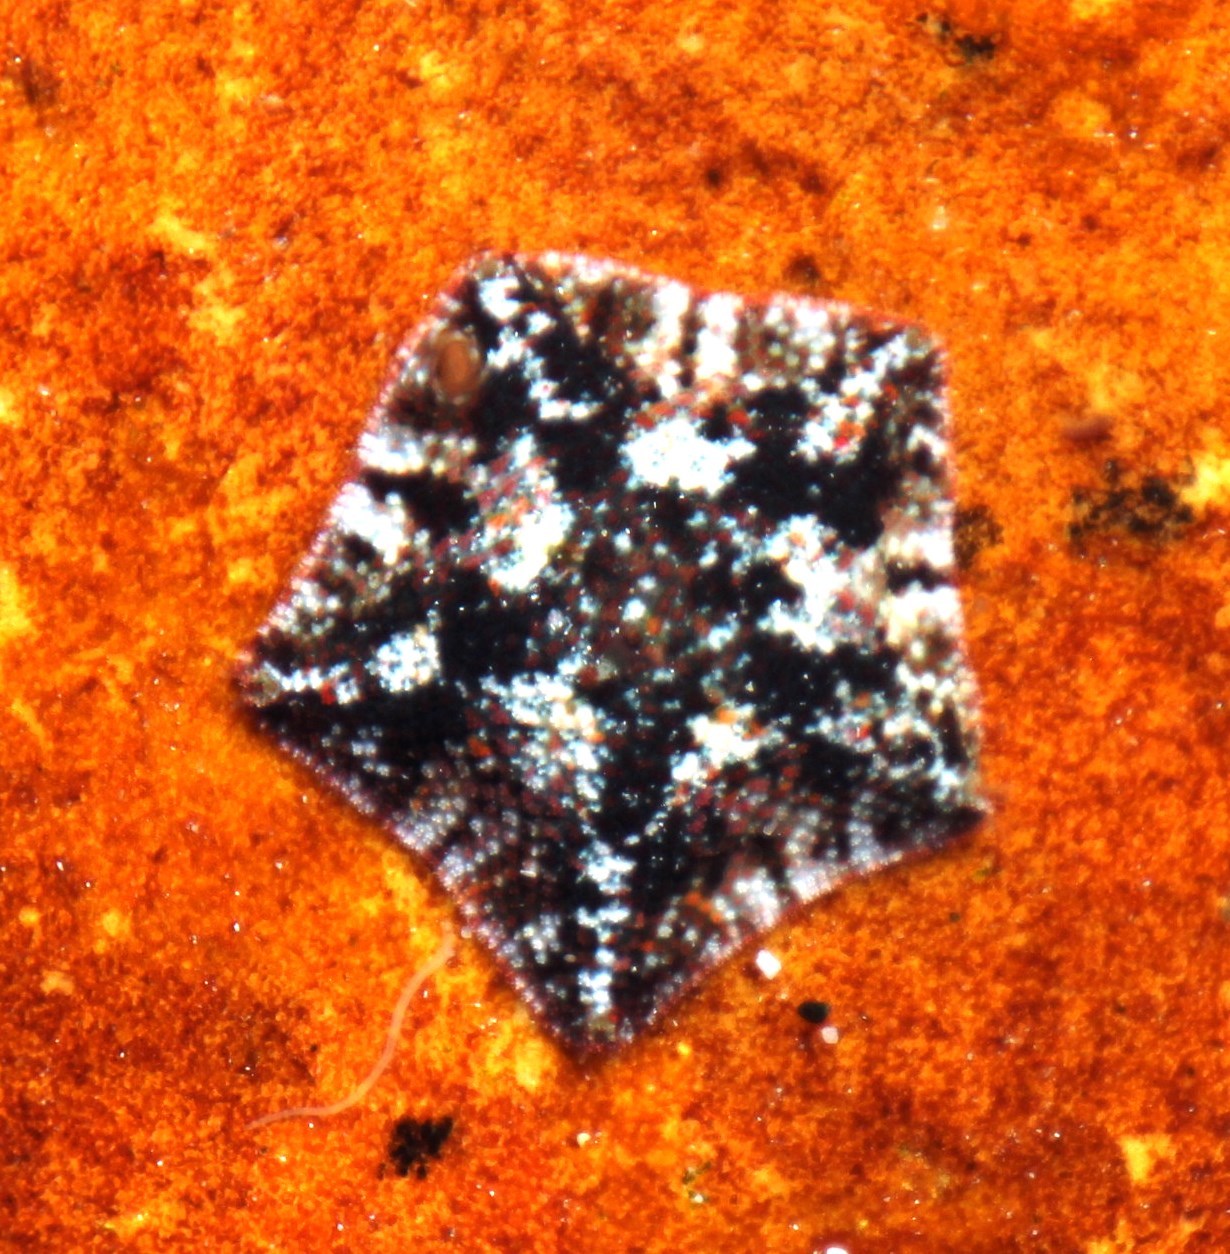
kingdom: Animalia
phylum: Echinodermata
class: Asteroidea
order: Valvatida
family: Asterinidae
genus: Parvulastra
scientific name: Parvulastra exigua
